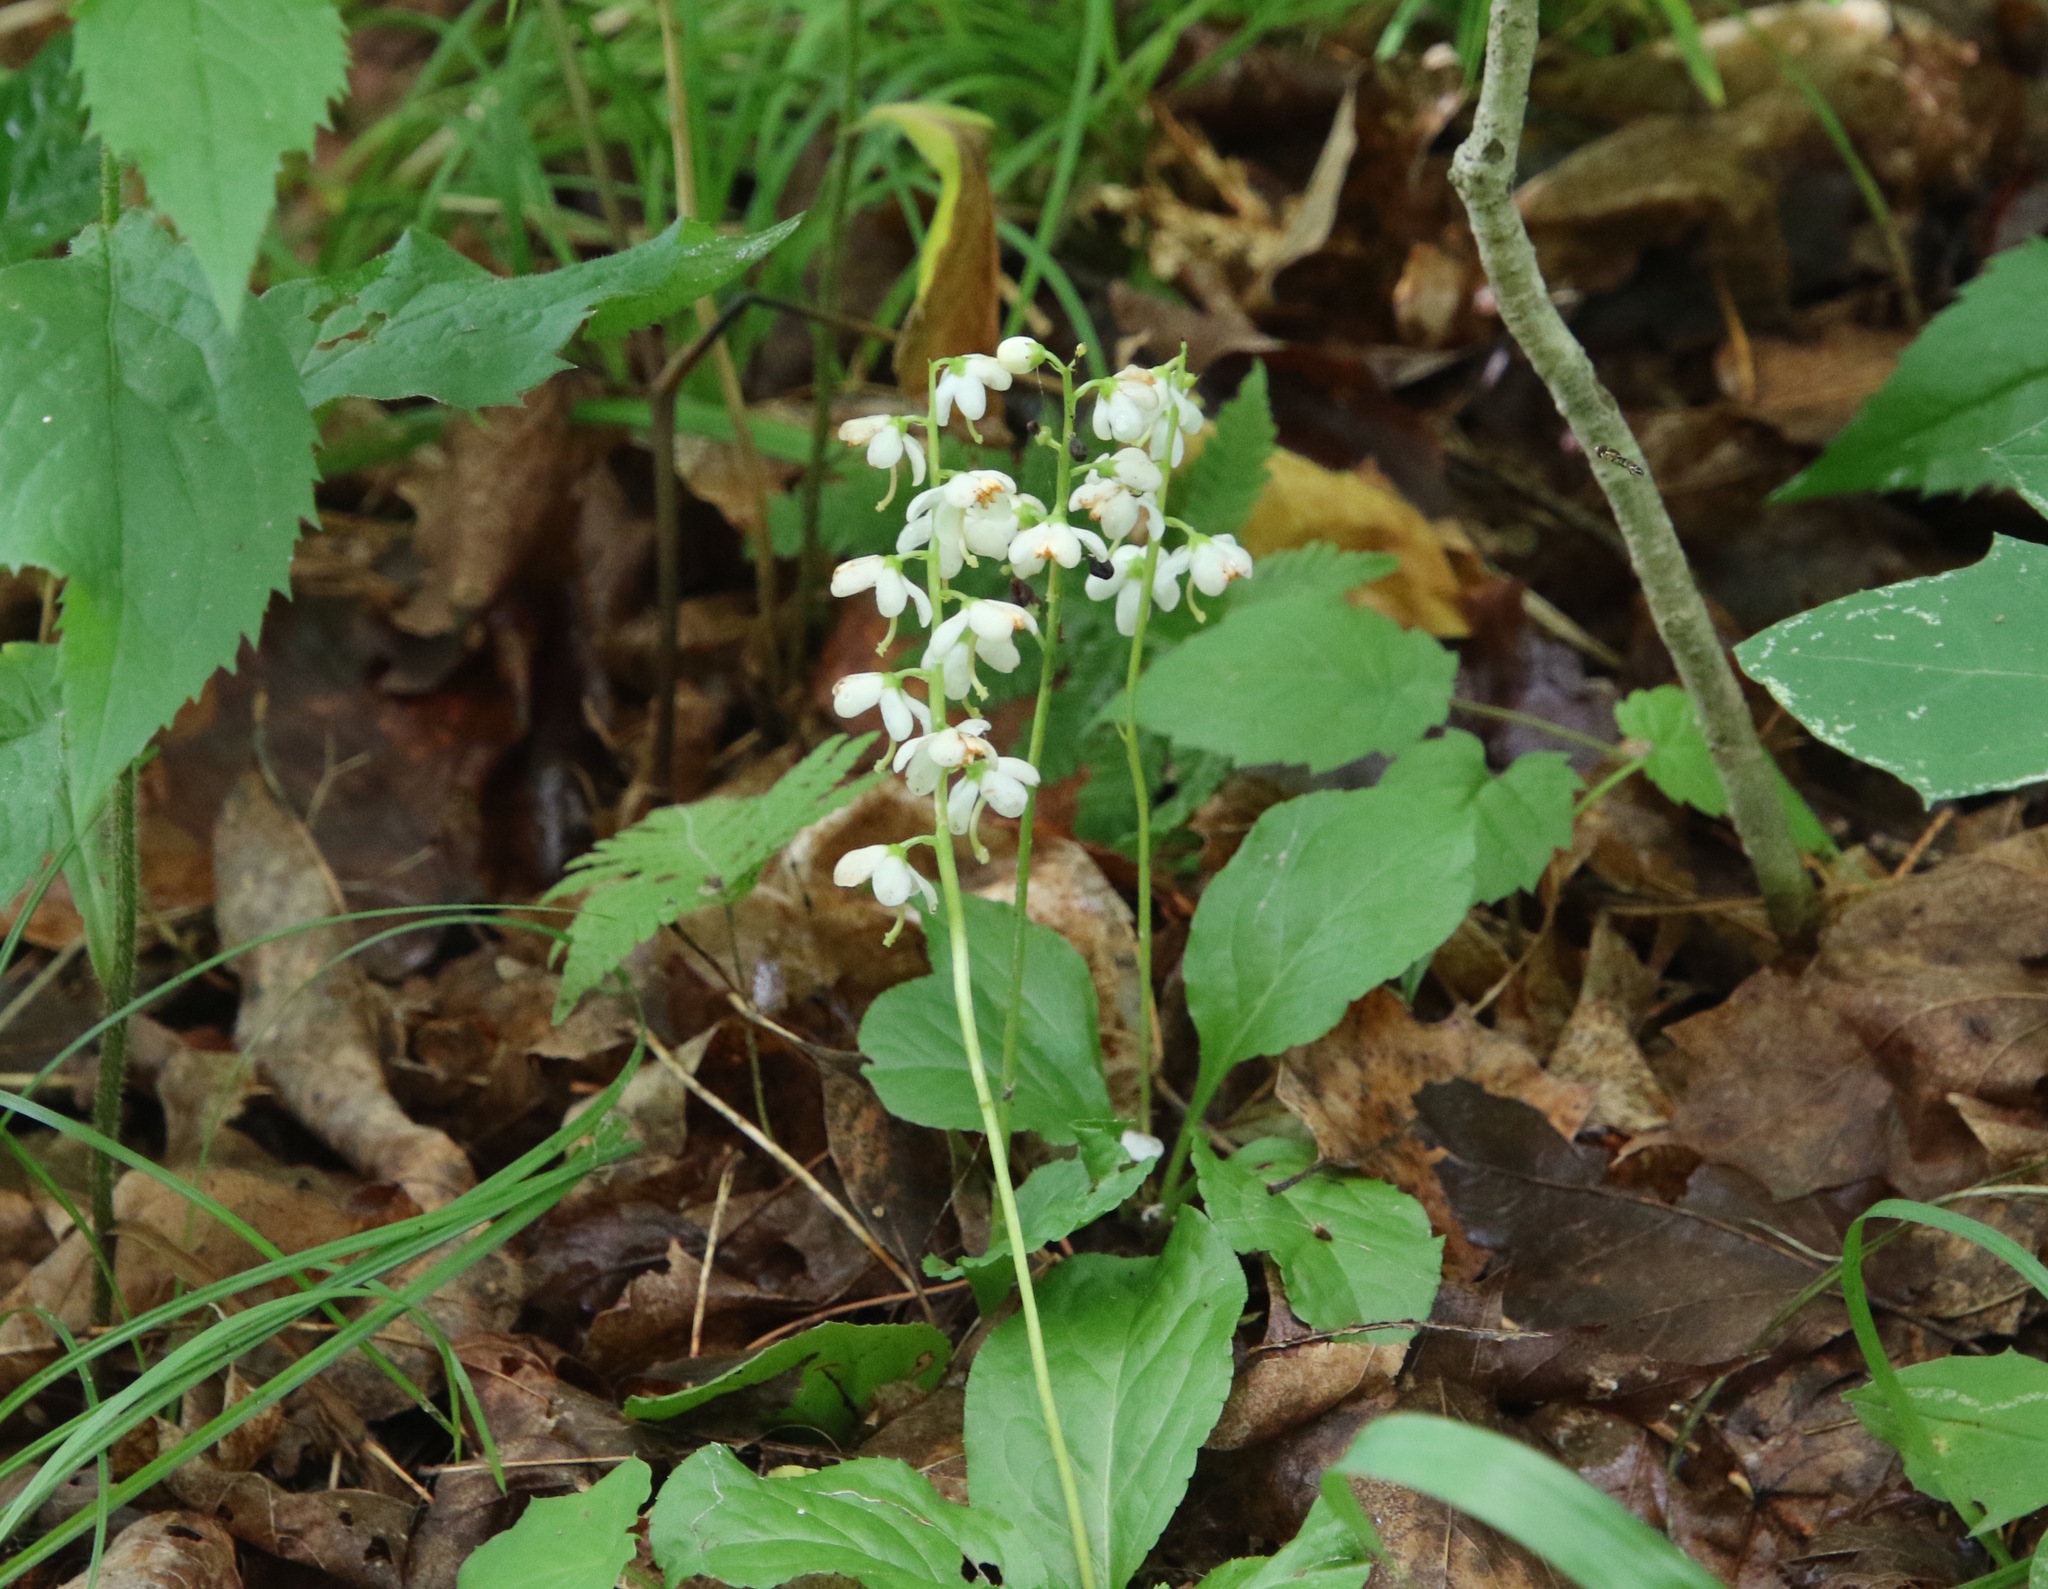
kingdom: Plantae
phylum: Tracheophyta
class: Magnoliopsida
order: Ericales
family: Ericaceae
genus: Pyrola
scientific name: Pyrola elliptica
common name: Shinleaf
